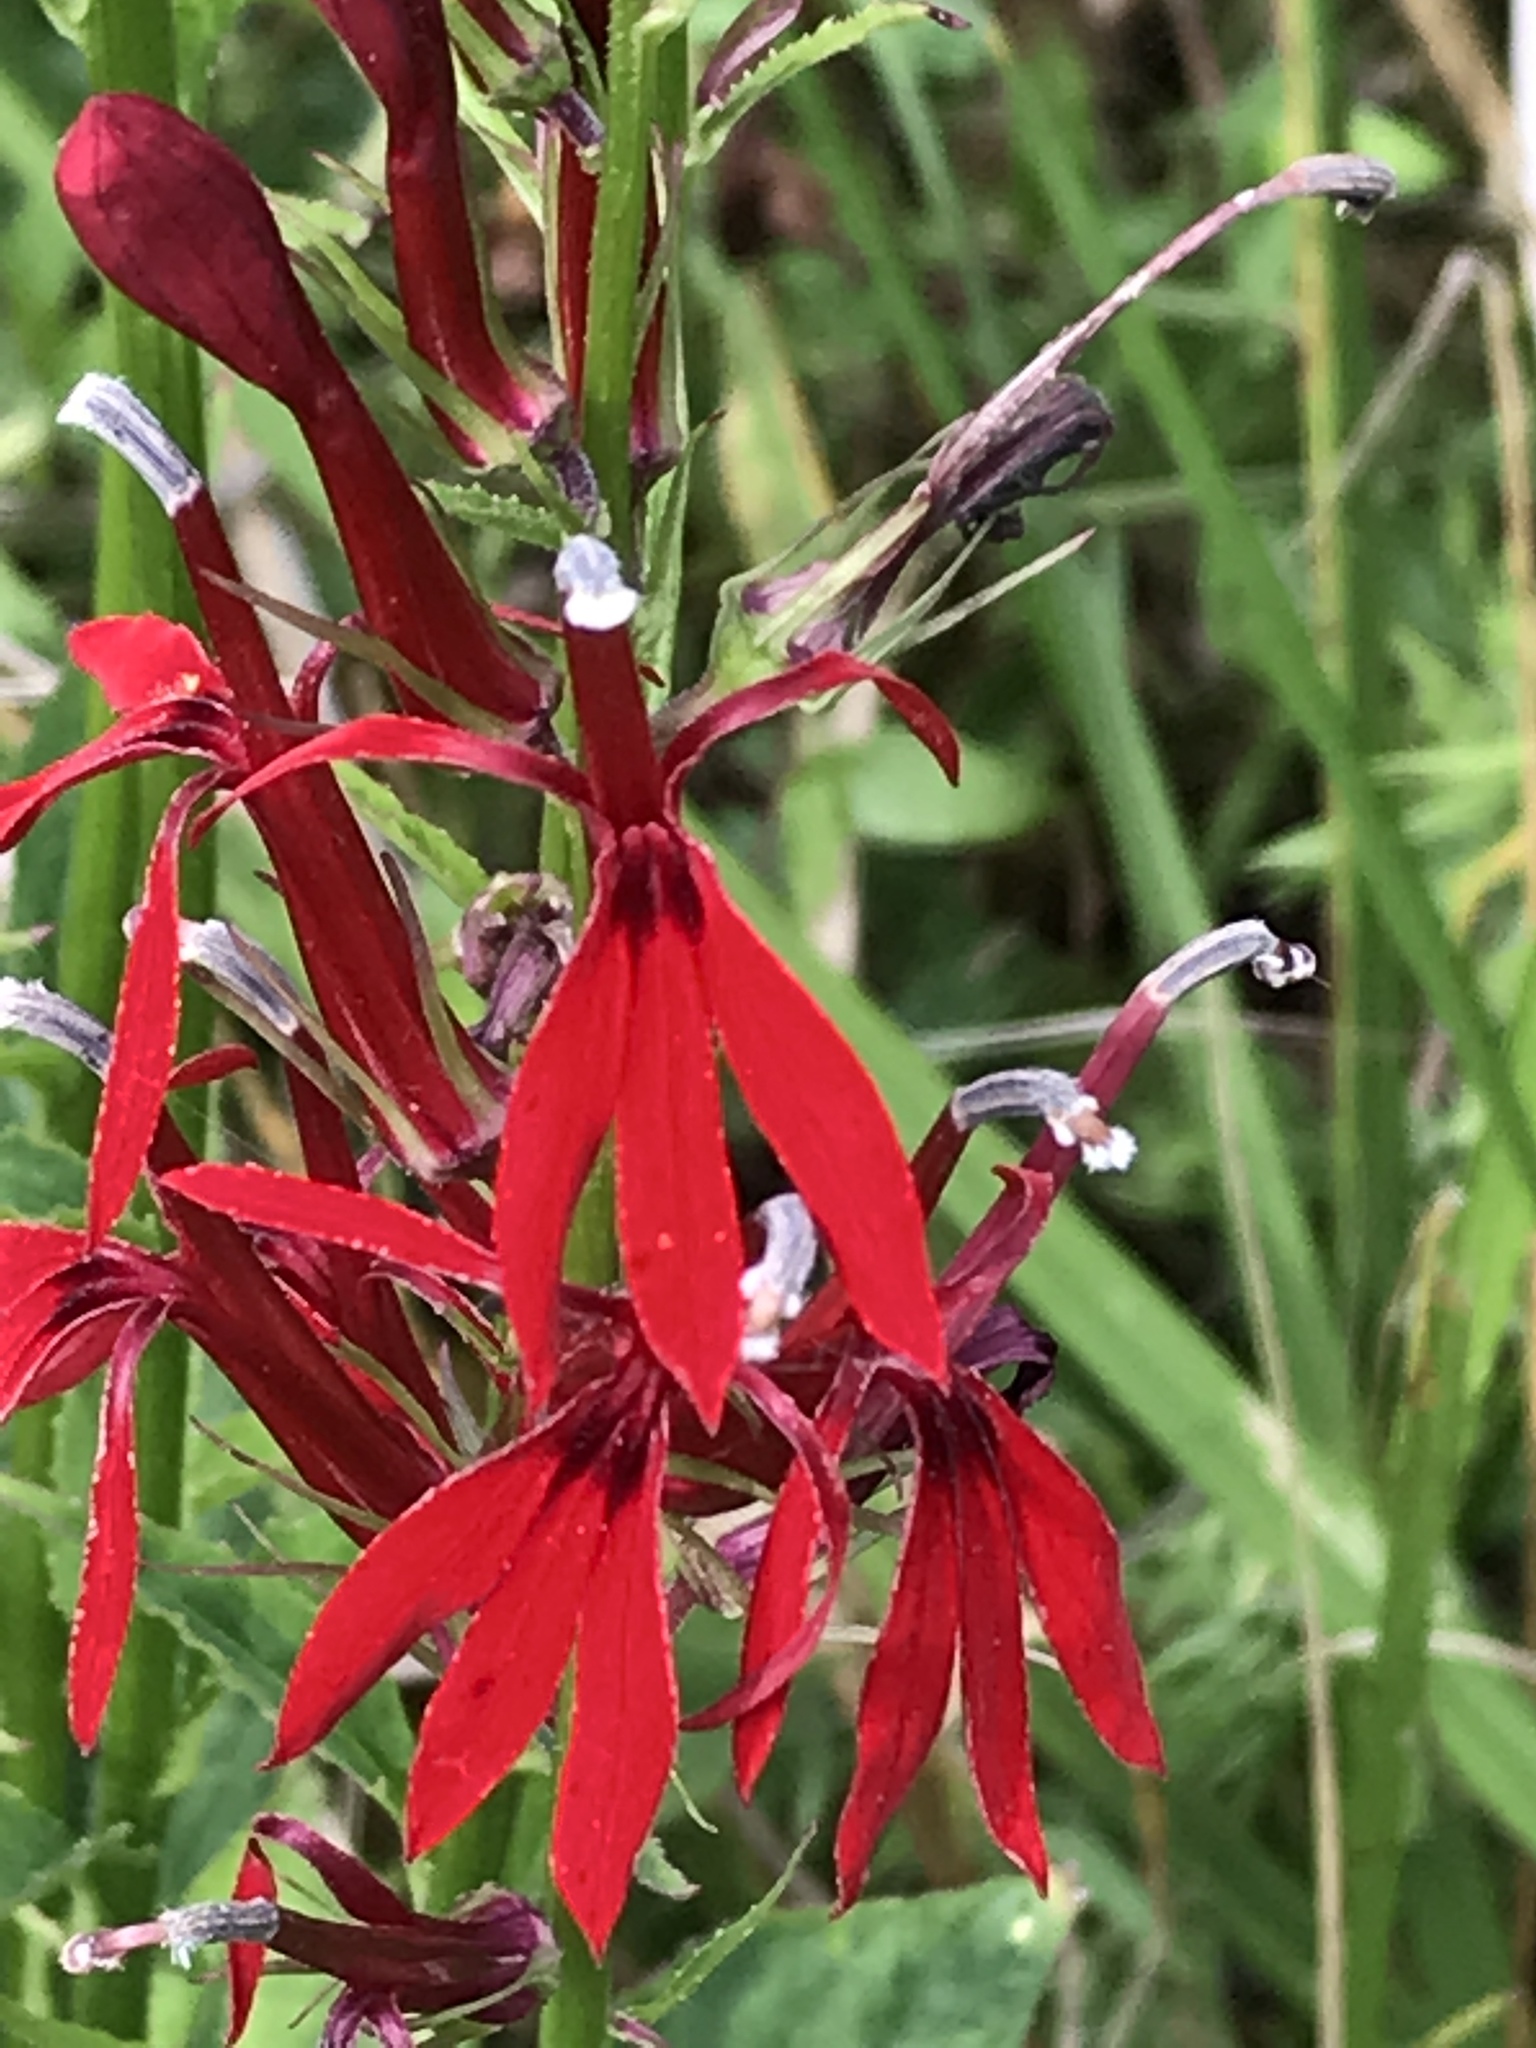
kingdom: Plantae
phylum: Tracheophyta
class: Magnoliopsida
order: Asterales
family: Campanulaceae
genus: Lobelia
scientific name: Lobelia cardinalis
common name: Cardinal flower
